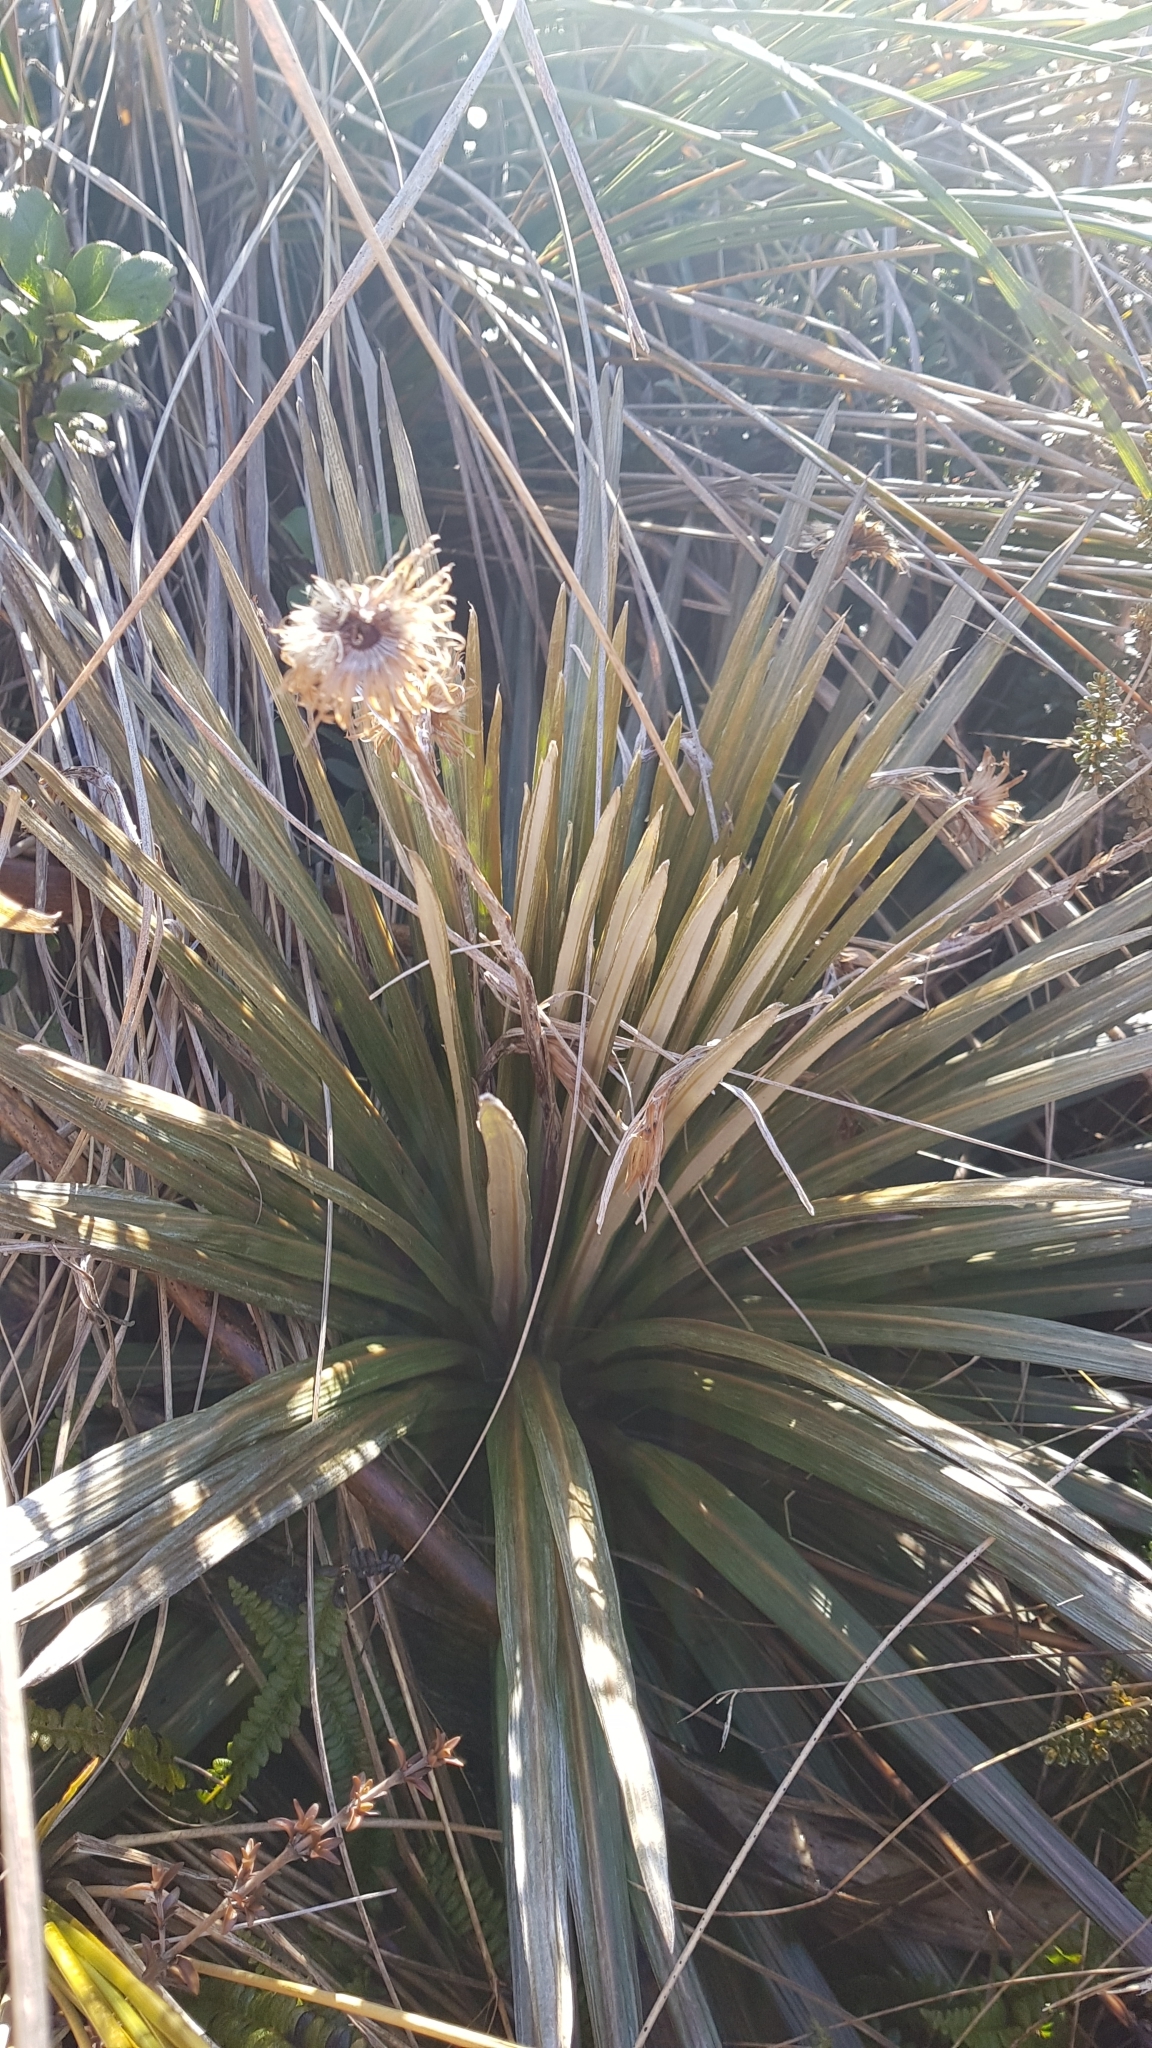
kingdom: Plantae
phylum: Tracheophyta
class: Magnoliopsida
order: Asterales
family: Asteraceae
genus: Celmisia
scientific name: Celmisia armstrongii
